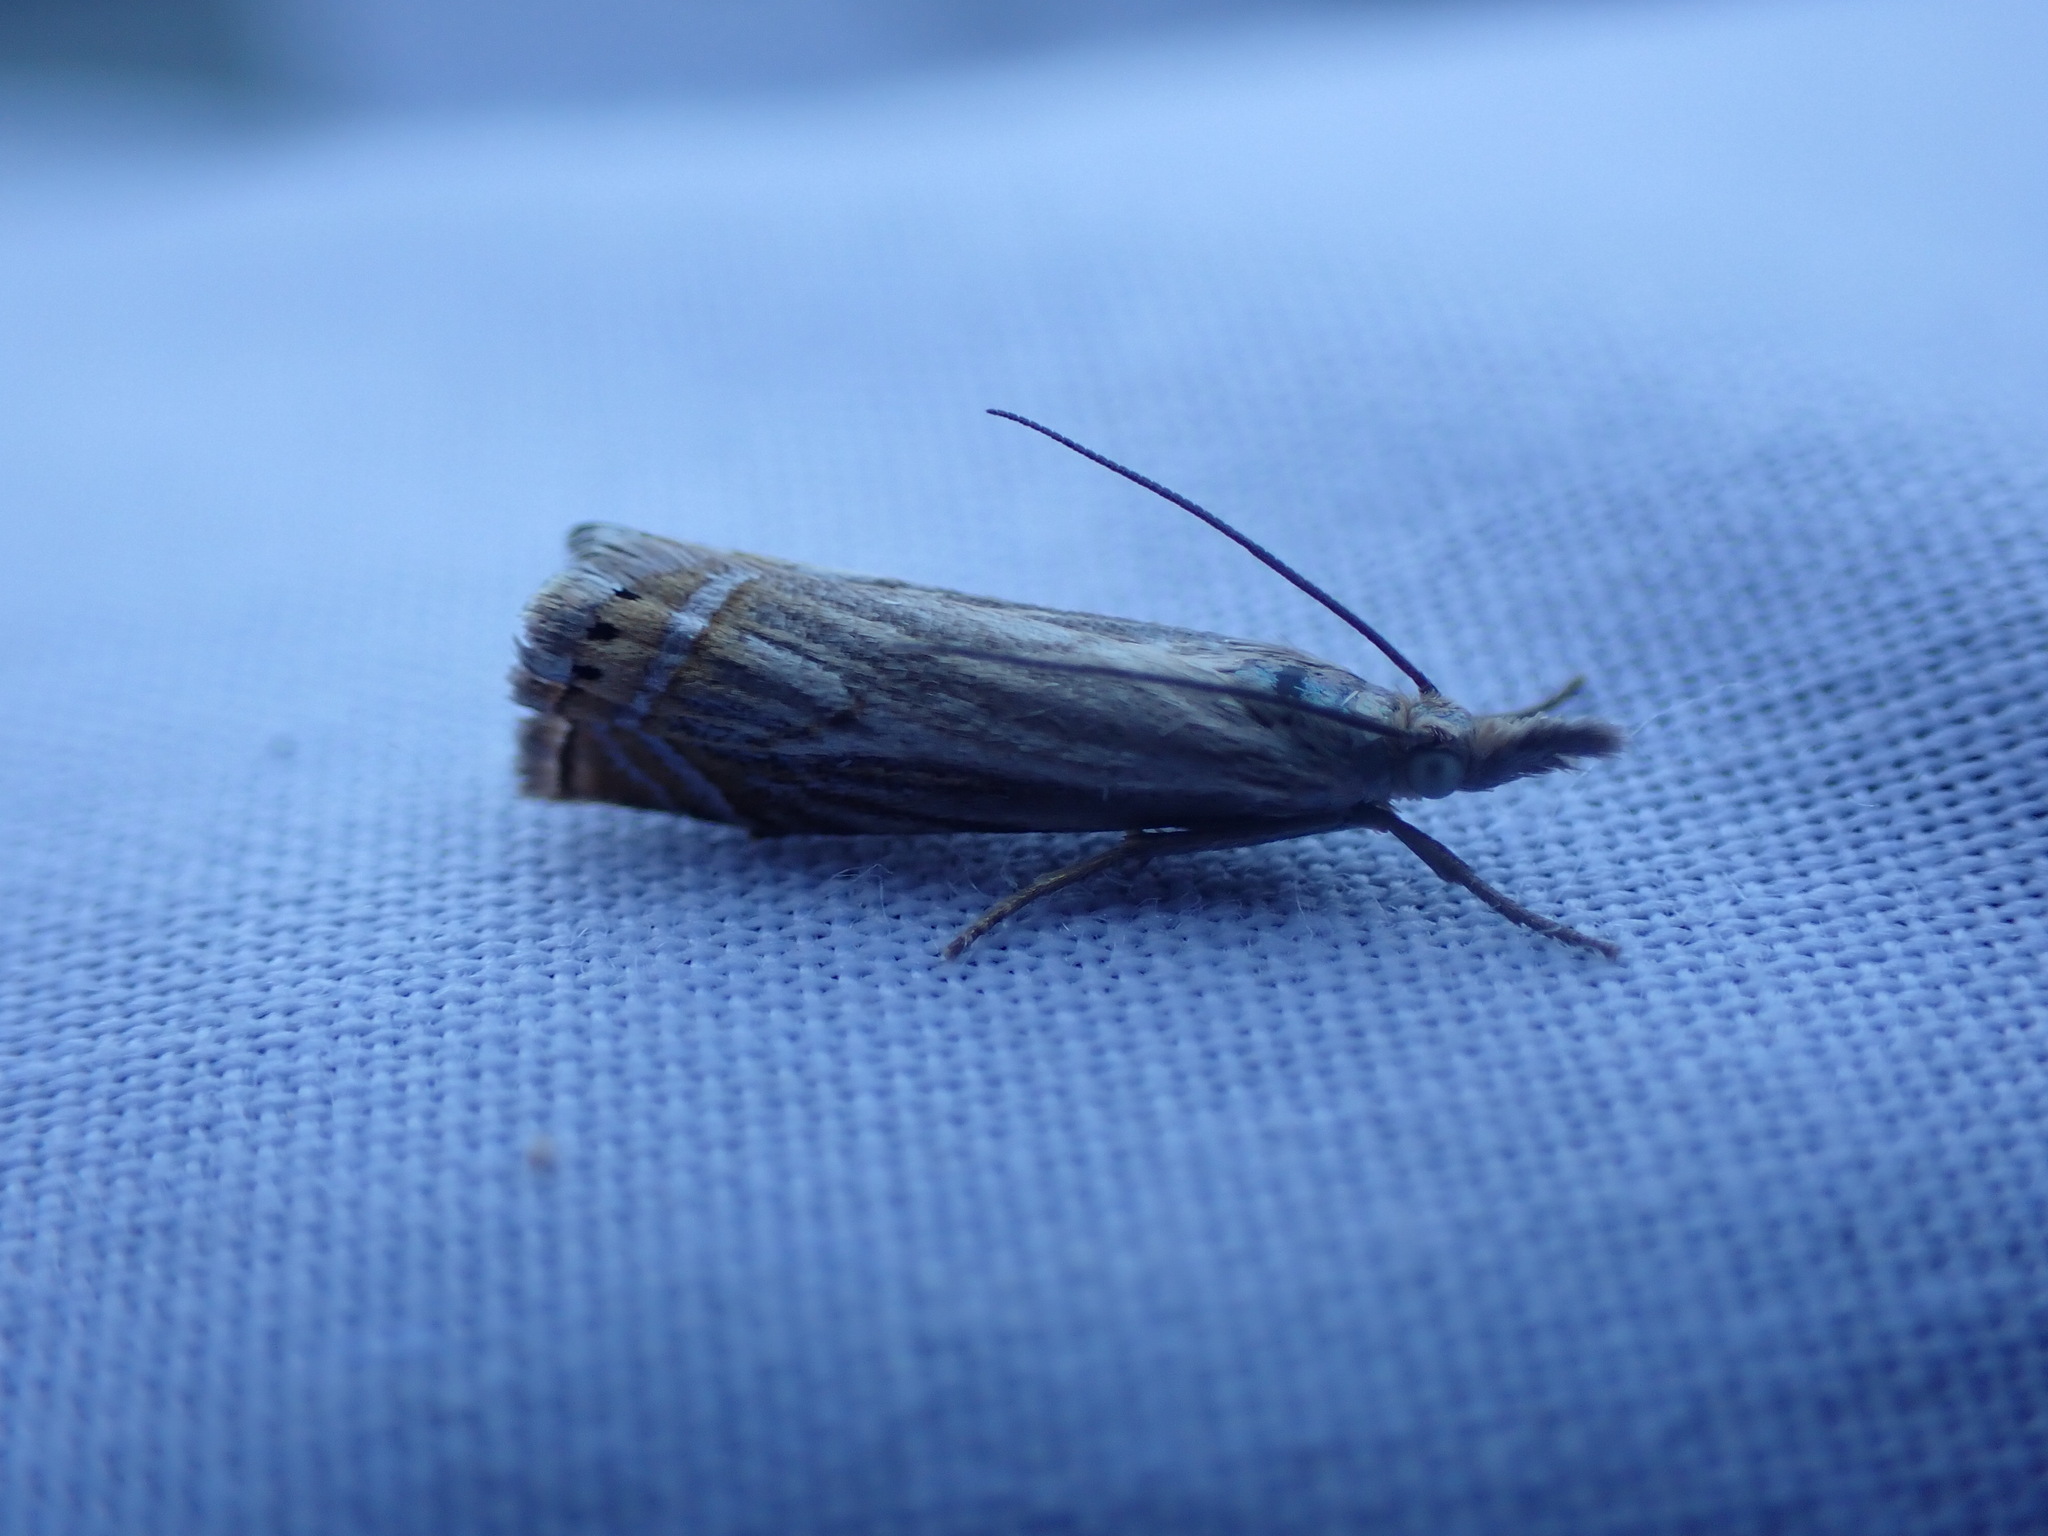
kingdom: Animalia
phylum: Arthropoda
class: Insecta
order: Lepidoptera
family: Crambidae
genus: Chrysoteuchia
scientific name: Chrysoteuchia topiarius
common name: Topiary grass-veneer
